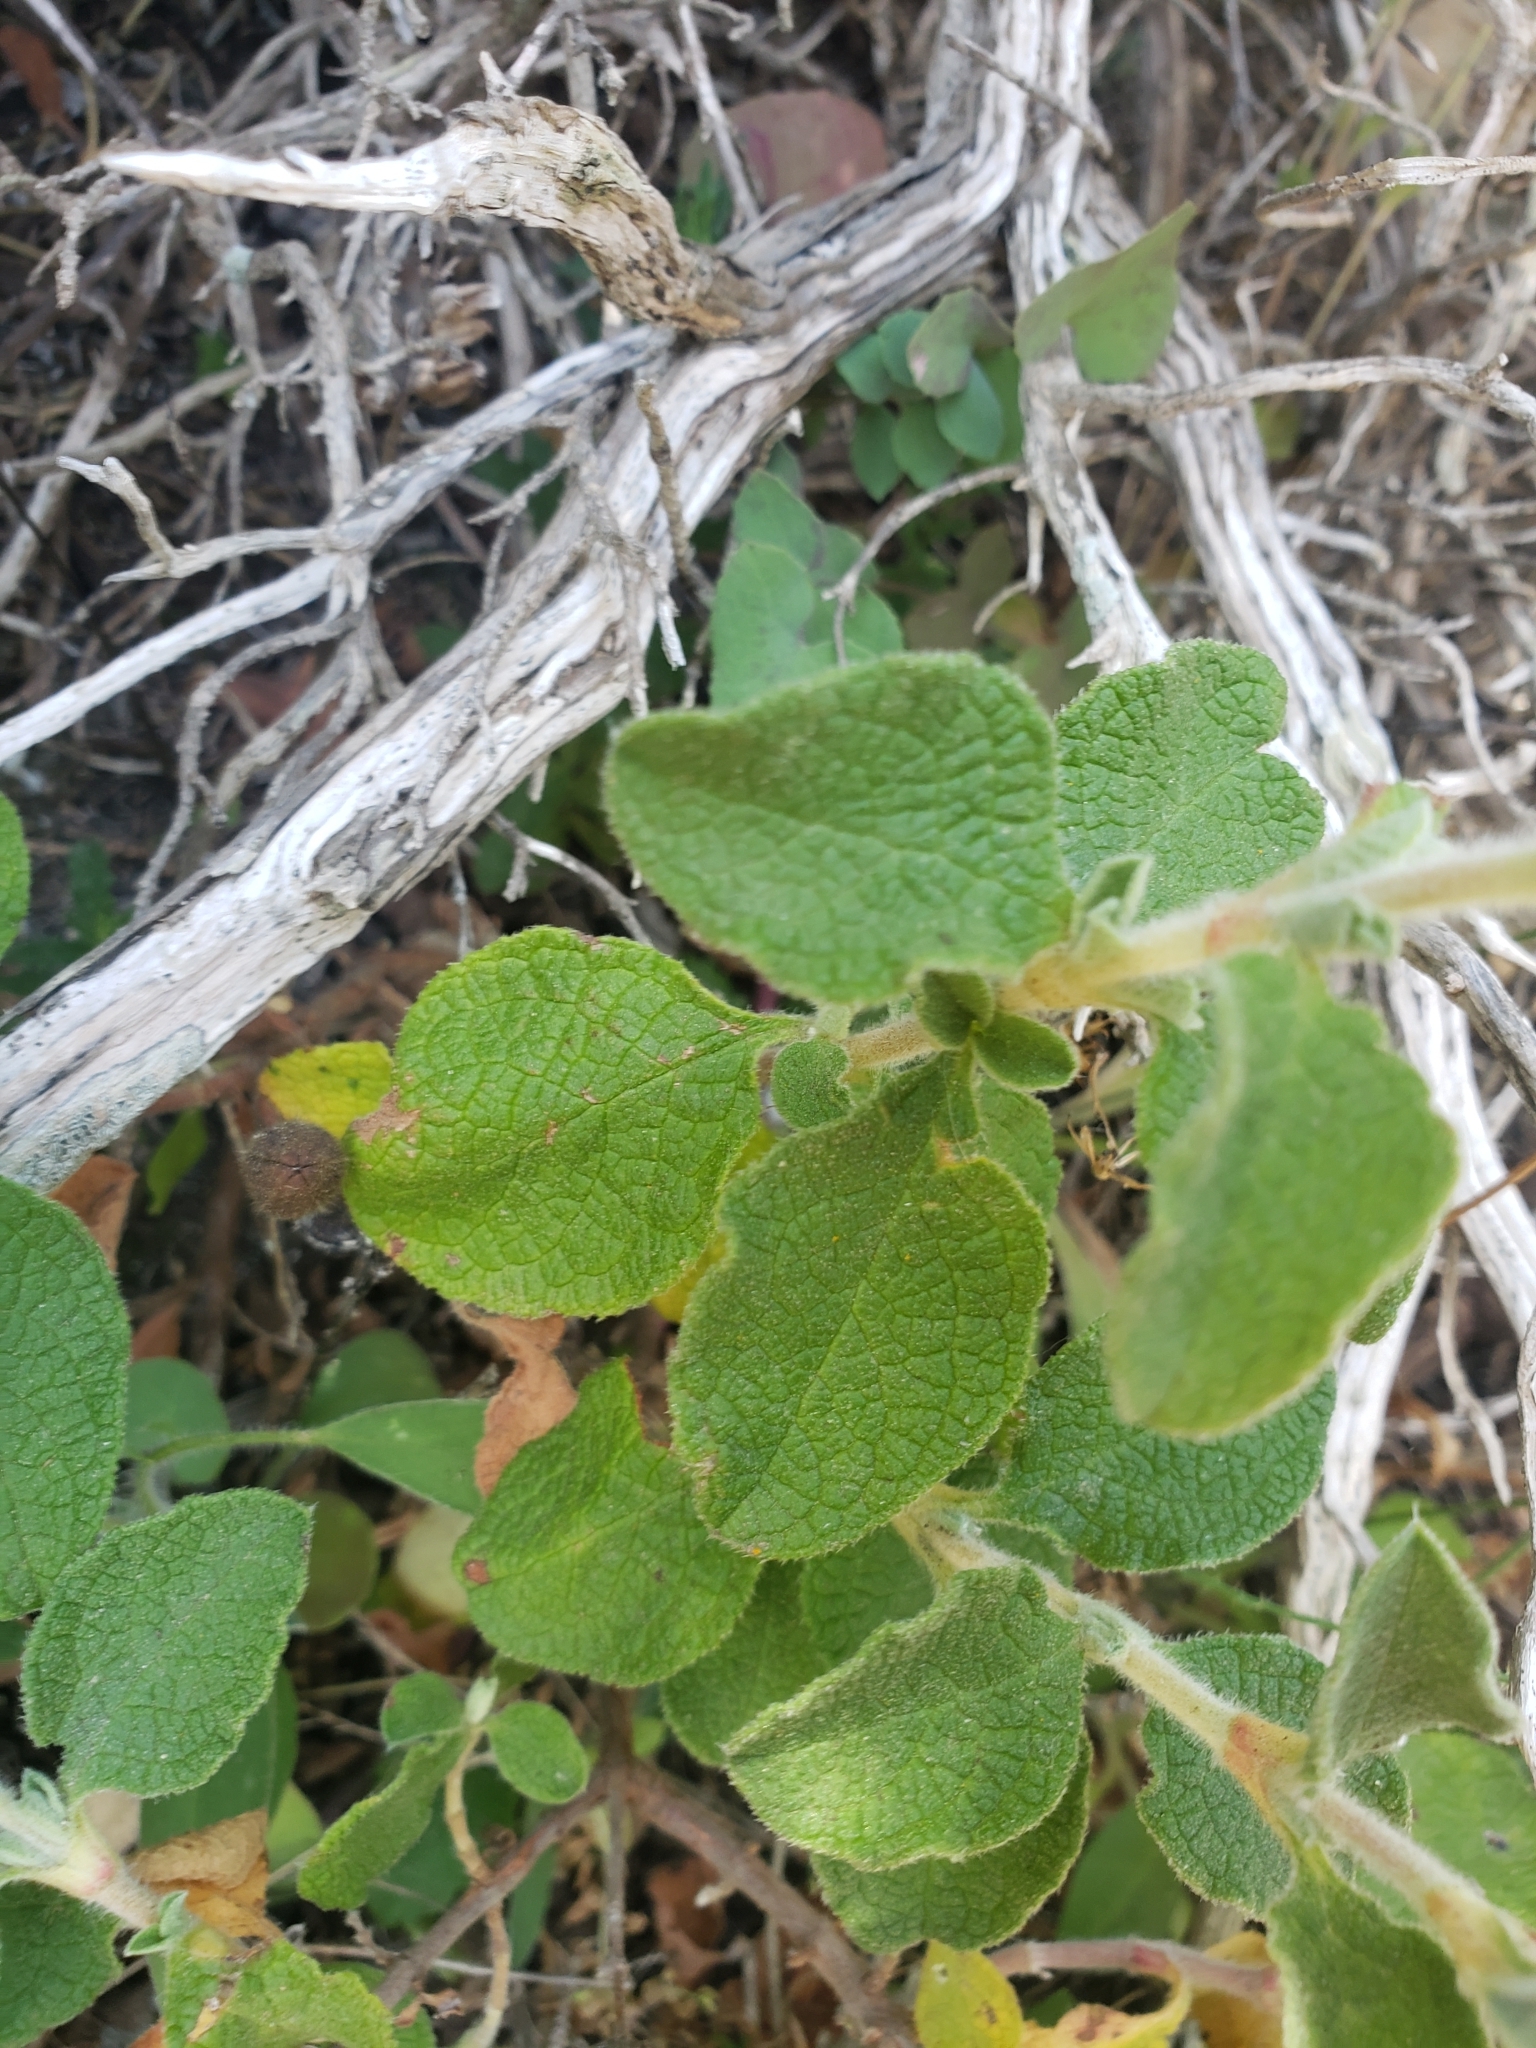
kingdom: Plantae
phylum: Tracheophyta
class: Magnoliopsida
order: Malvales
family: Cistaceae
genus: Cistus
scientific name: Cistus creticus
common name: Cretan rockrose
